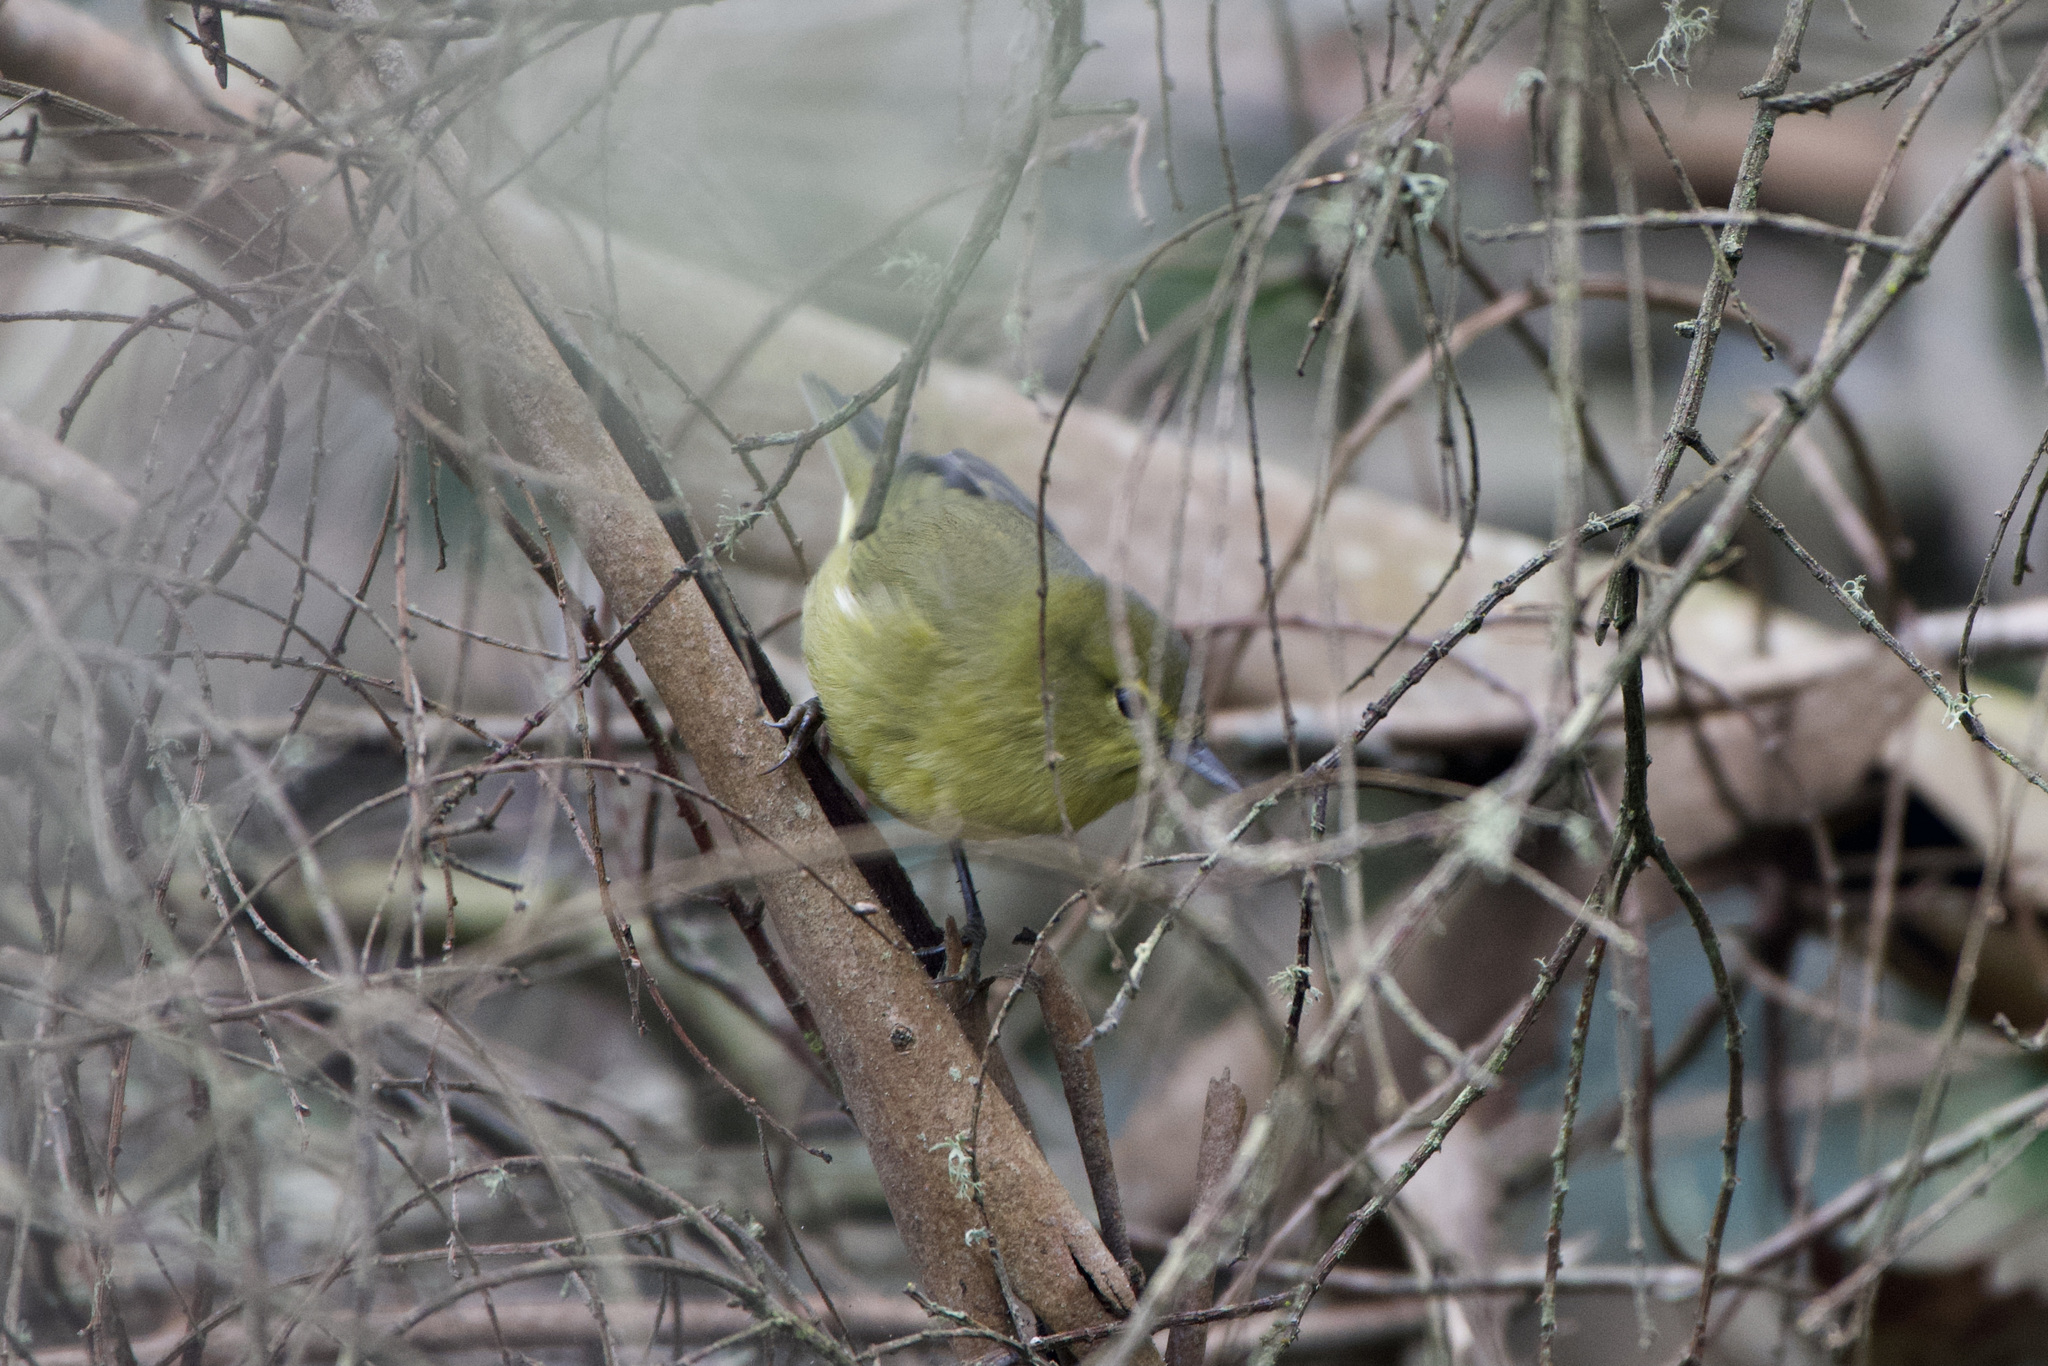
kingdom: Animalia
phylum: Chordata
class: Aves
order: Passeriformes
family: Parulidae
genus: Leiothlypis
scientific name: Leiothlypis celata
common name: Orange-crowned warbler
